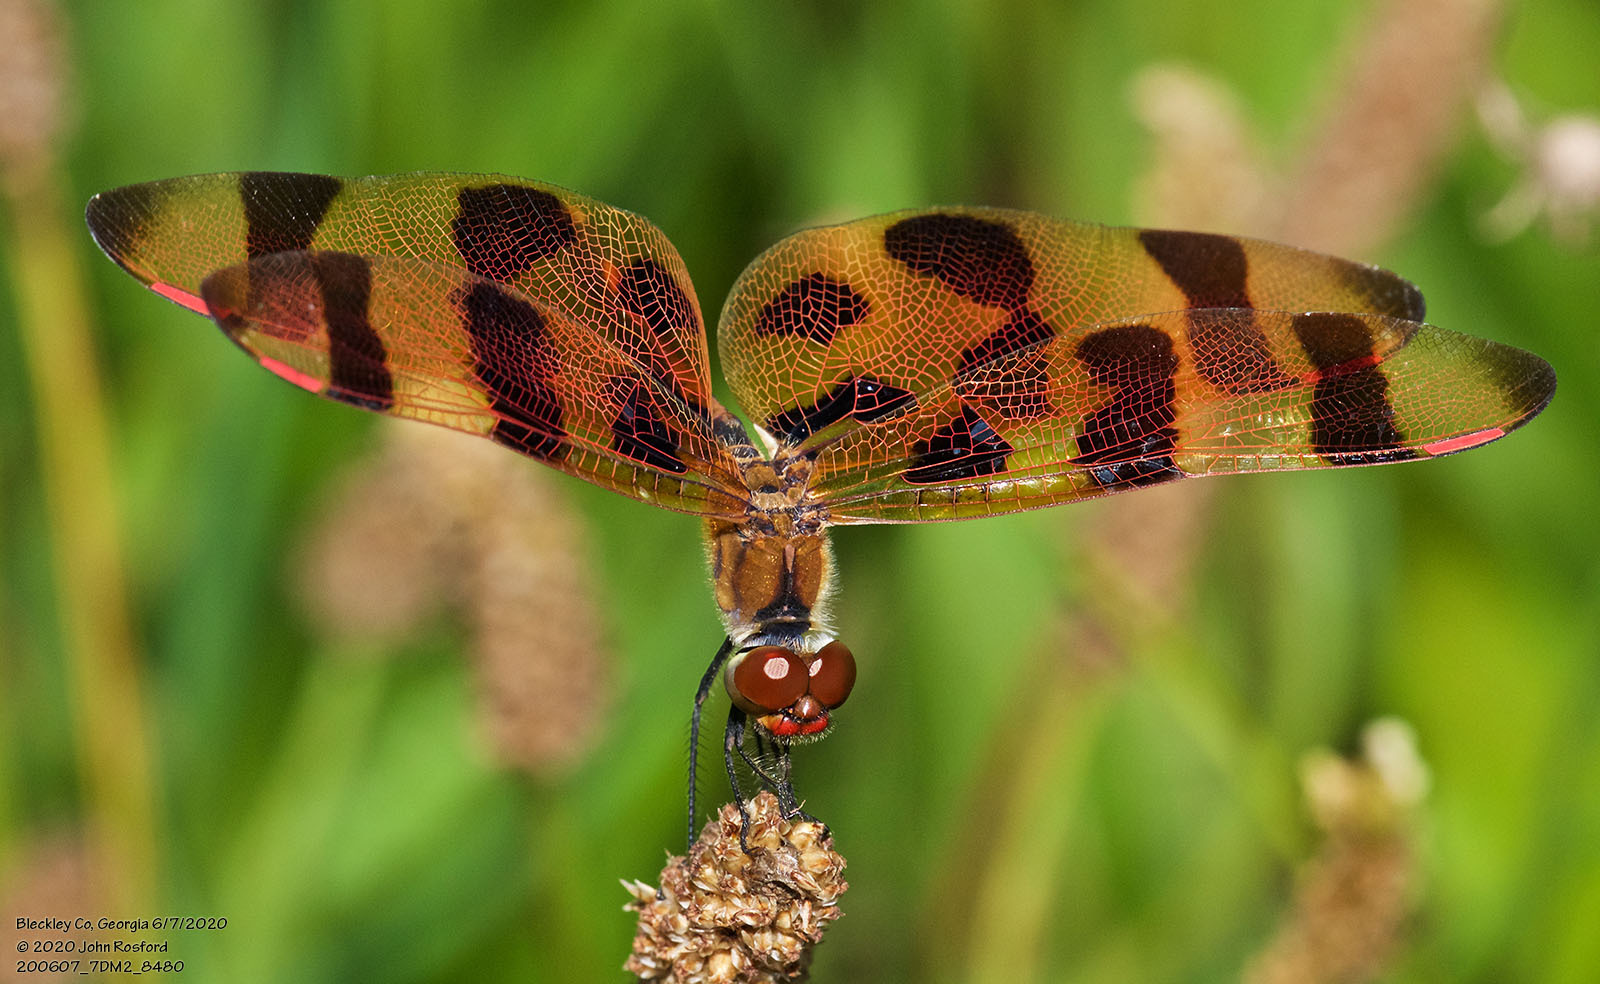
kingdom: Animalia
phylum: Arthropoda
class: Insecta
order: Odonata
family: Libellulidae
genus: Celithemis
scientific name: Celithemis eponina
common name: Halloween pennant
